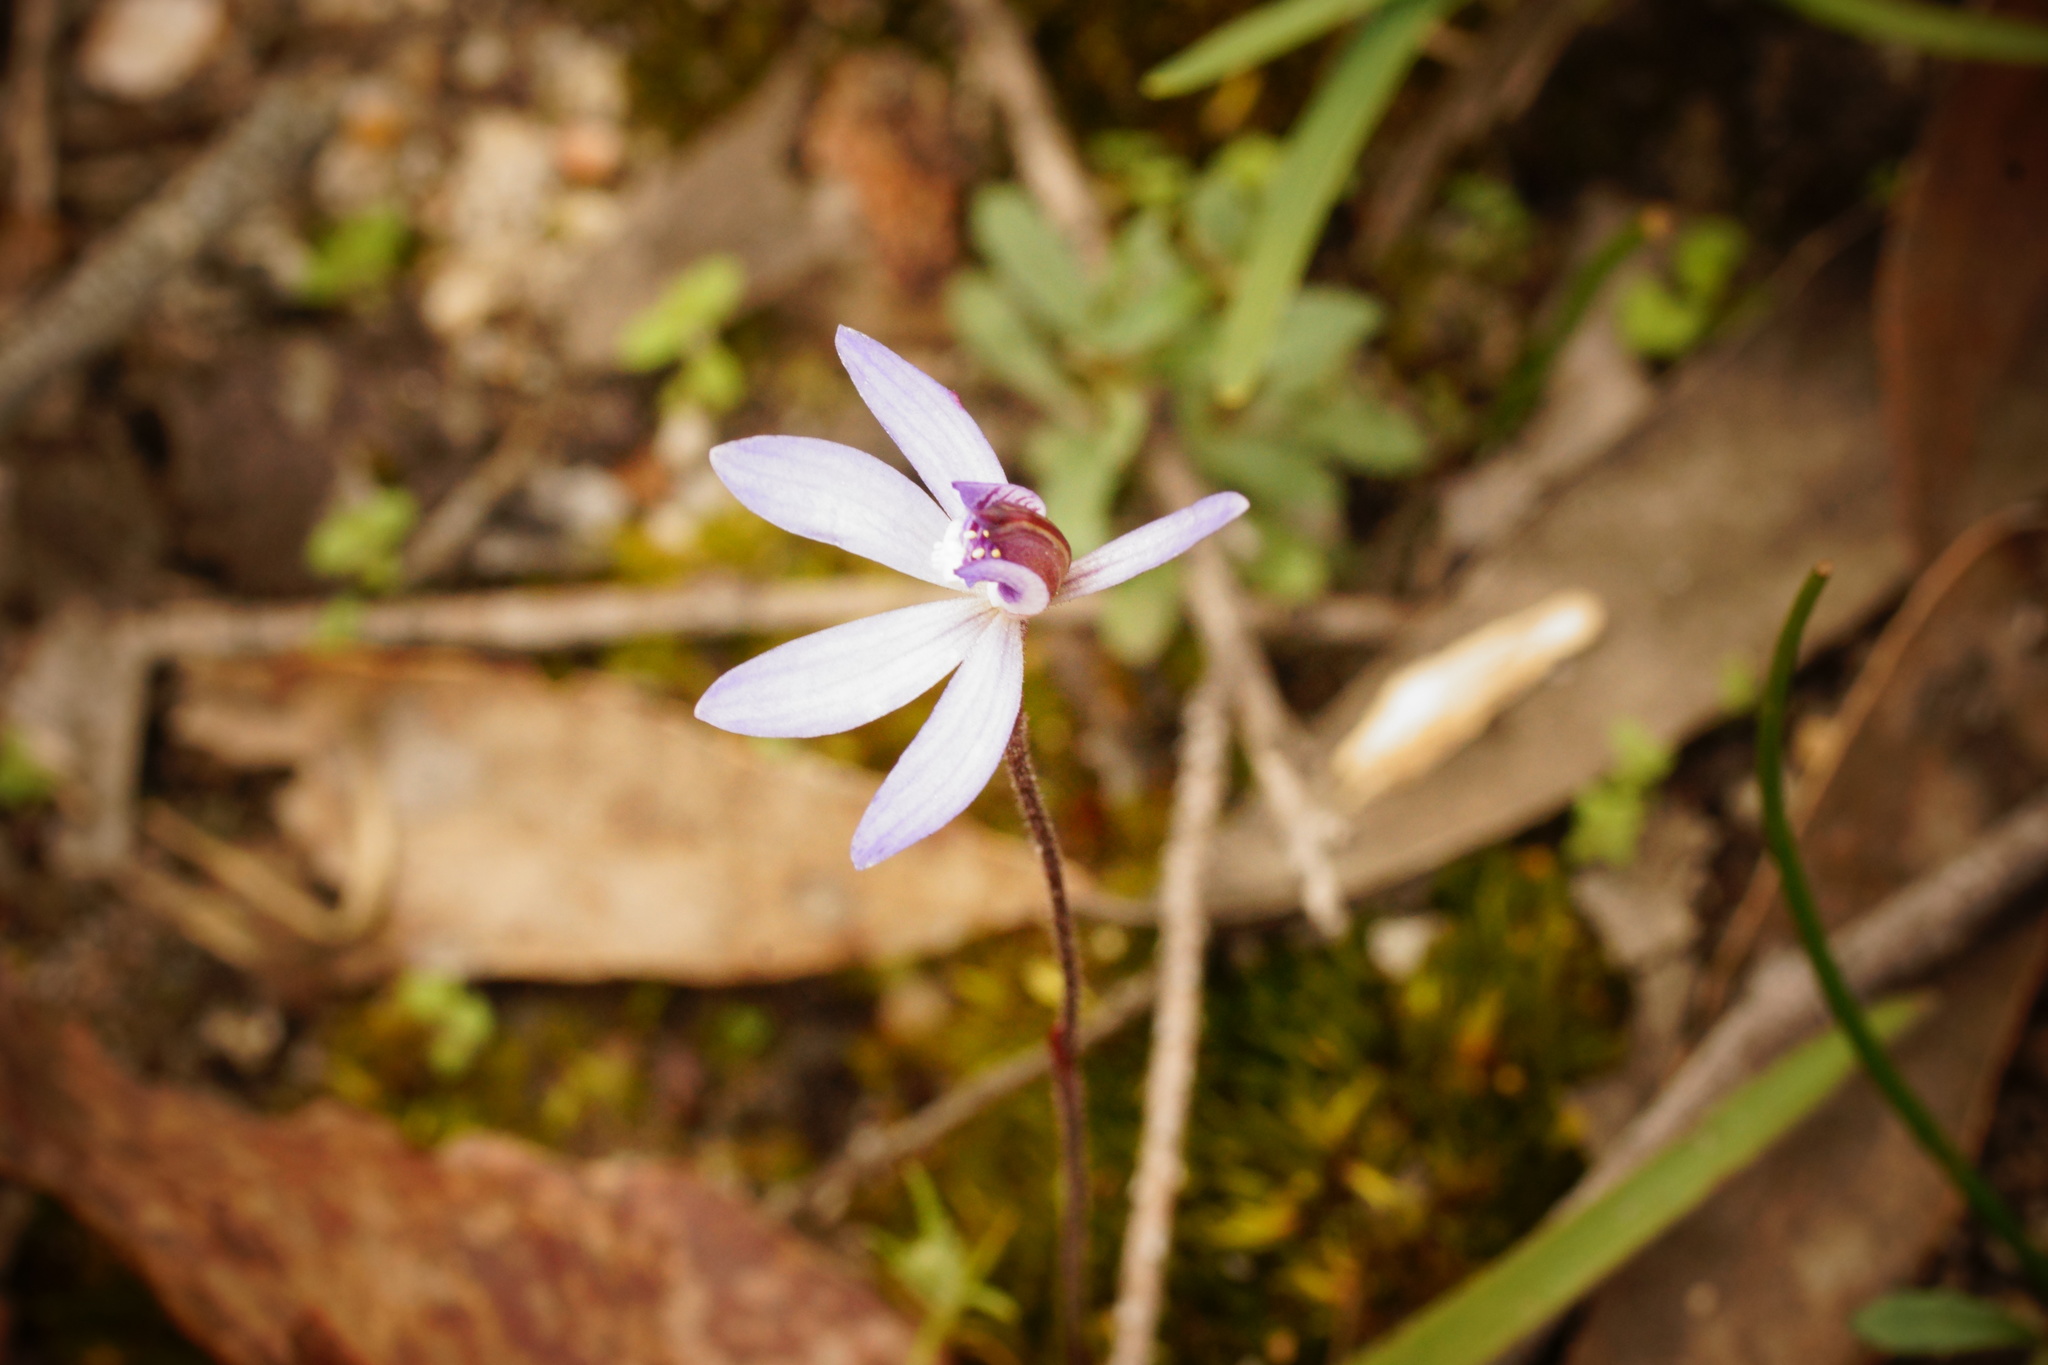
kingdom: Plantae
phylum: Tracheophyta
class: Liliopsida
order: Asparagales
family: Orchidaceae
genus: Caladenia
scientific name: Caladenia fuscata
